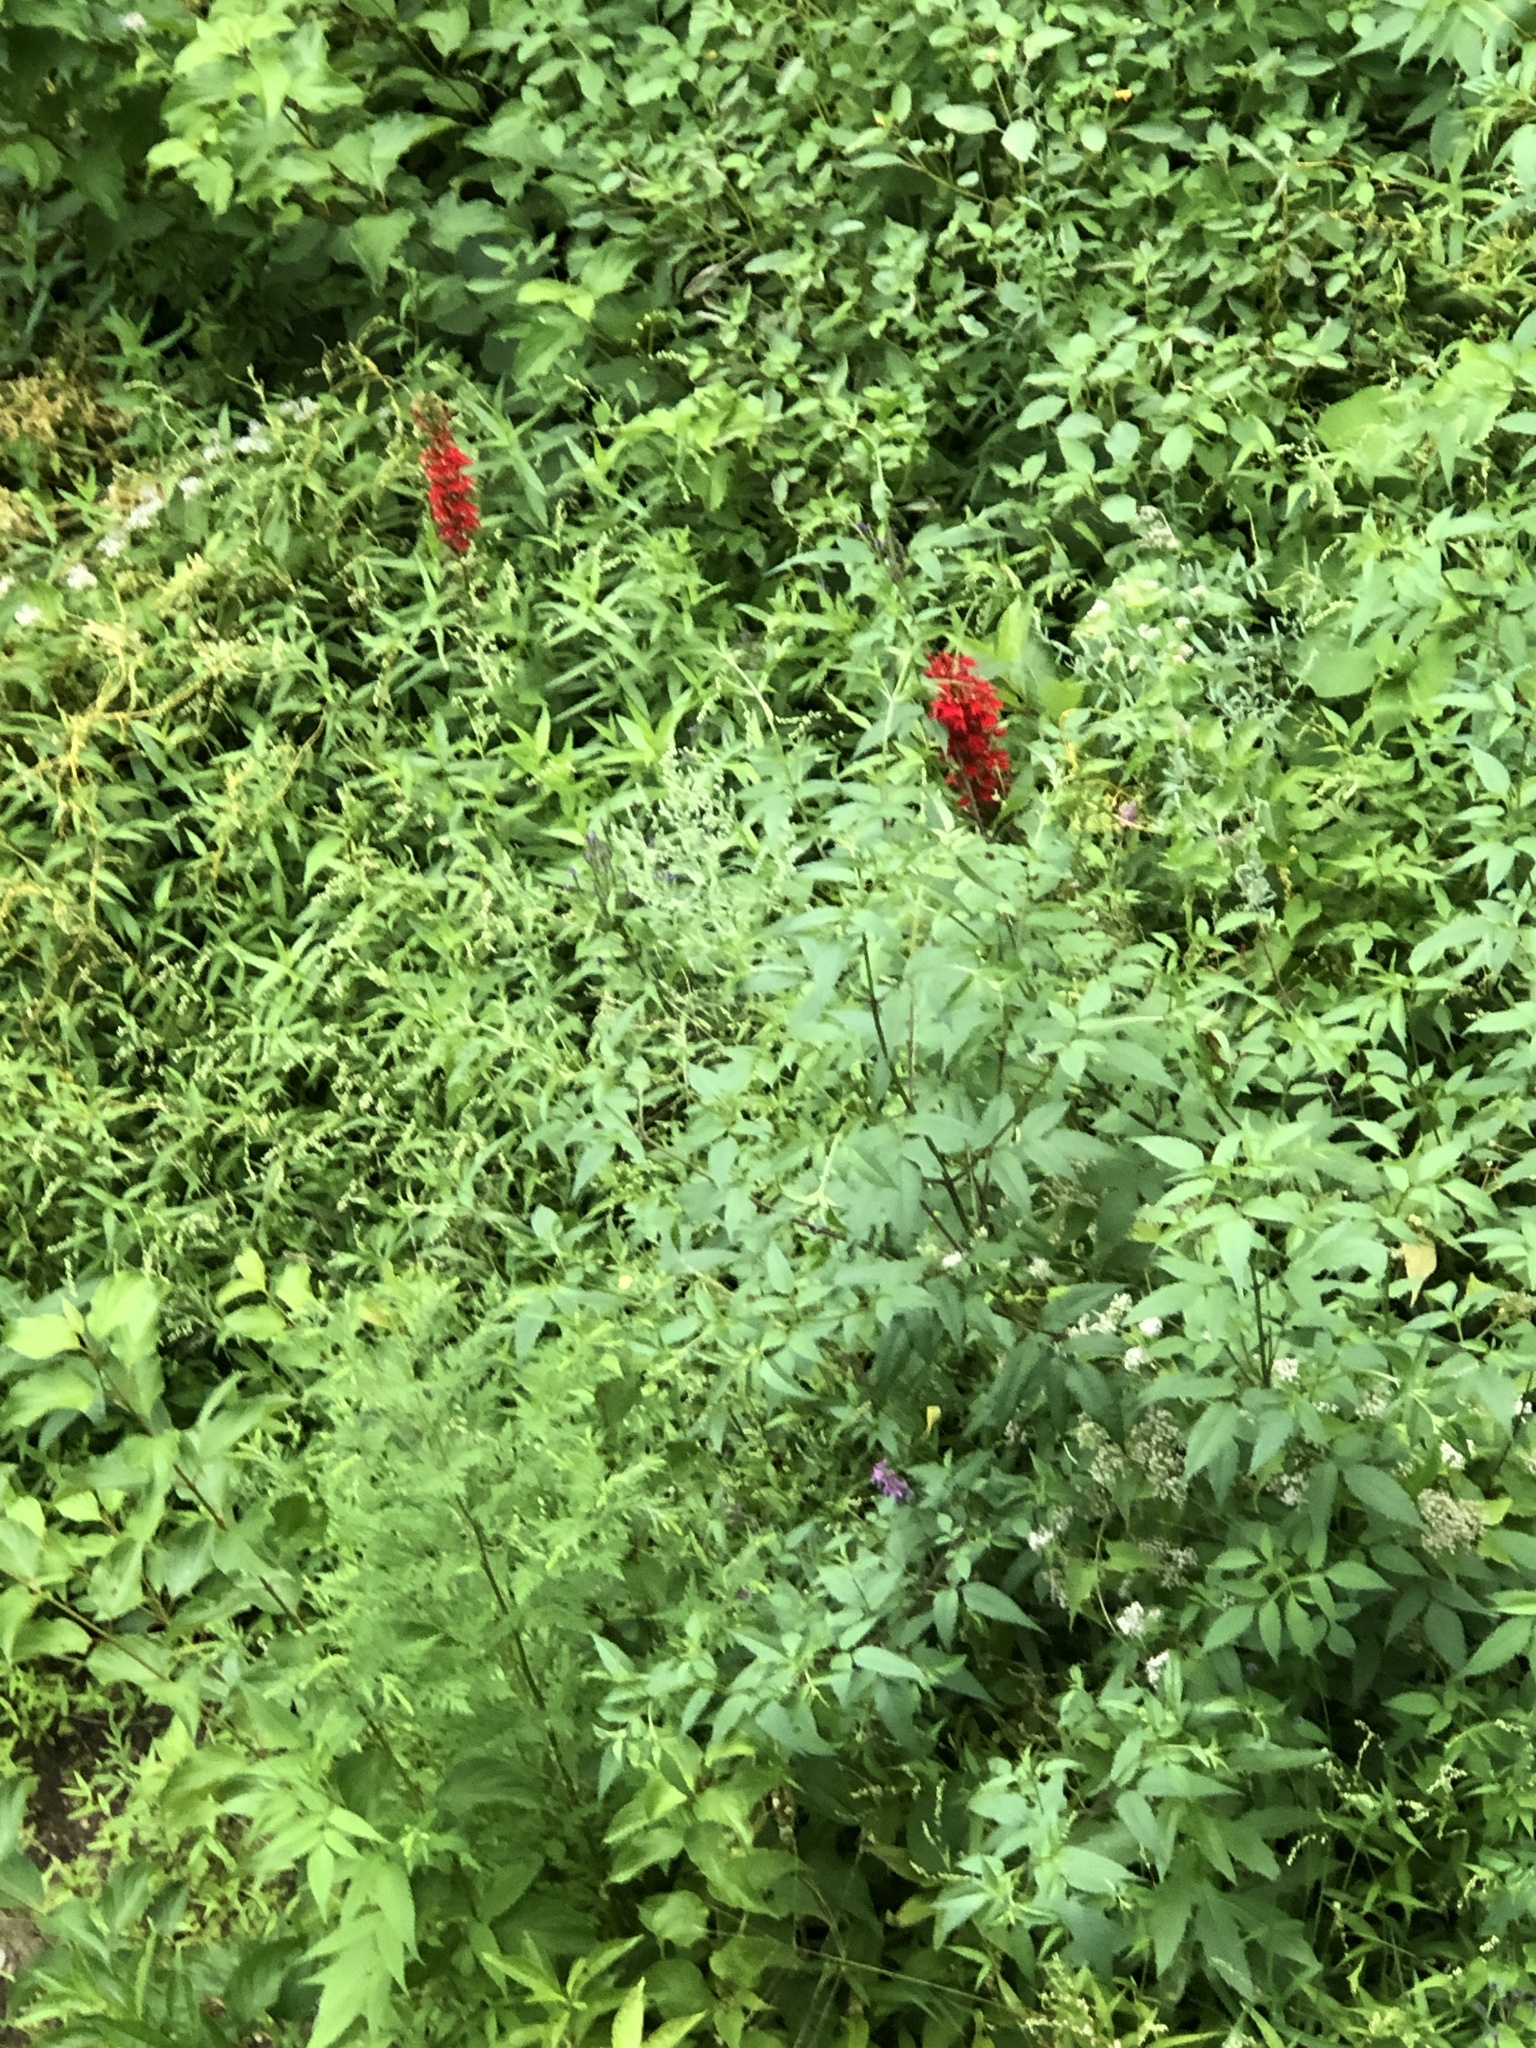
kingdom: Plantae
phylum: Tracheophyta
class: Magnoliopsida
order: Asterales
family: Campanulaceae
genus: Lobelia
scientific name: Lobelia cardinalis
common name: Cardinal flower
